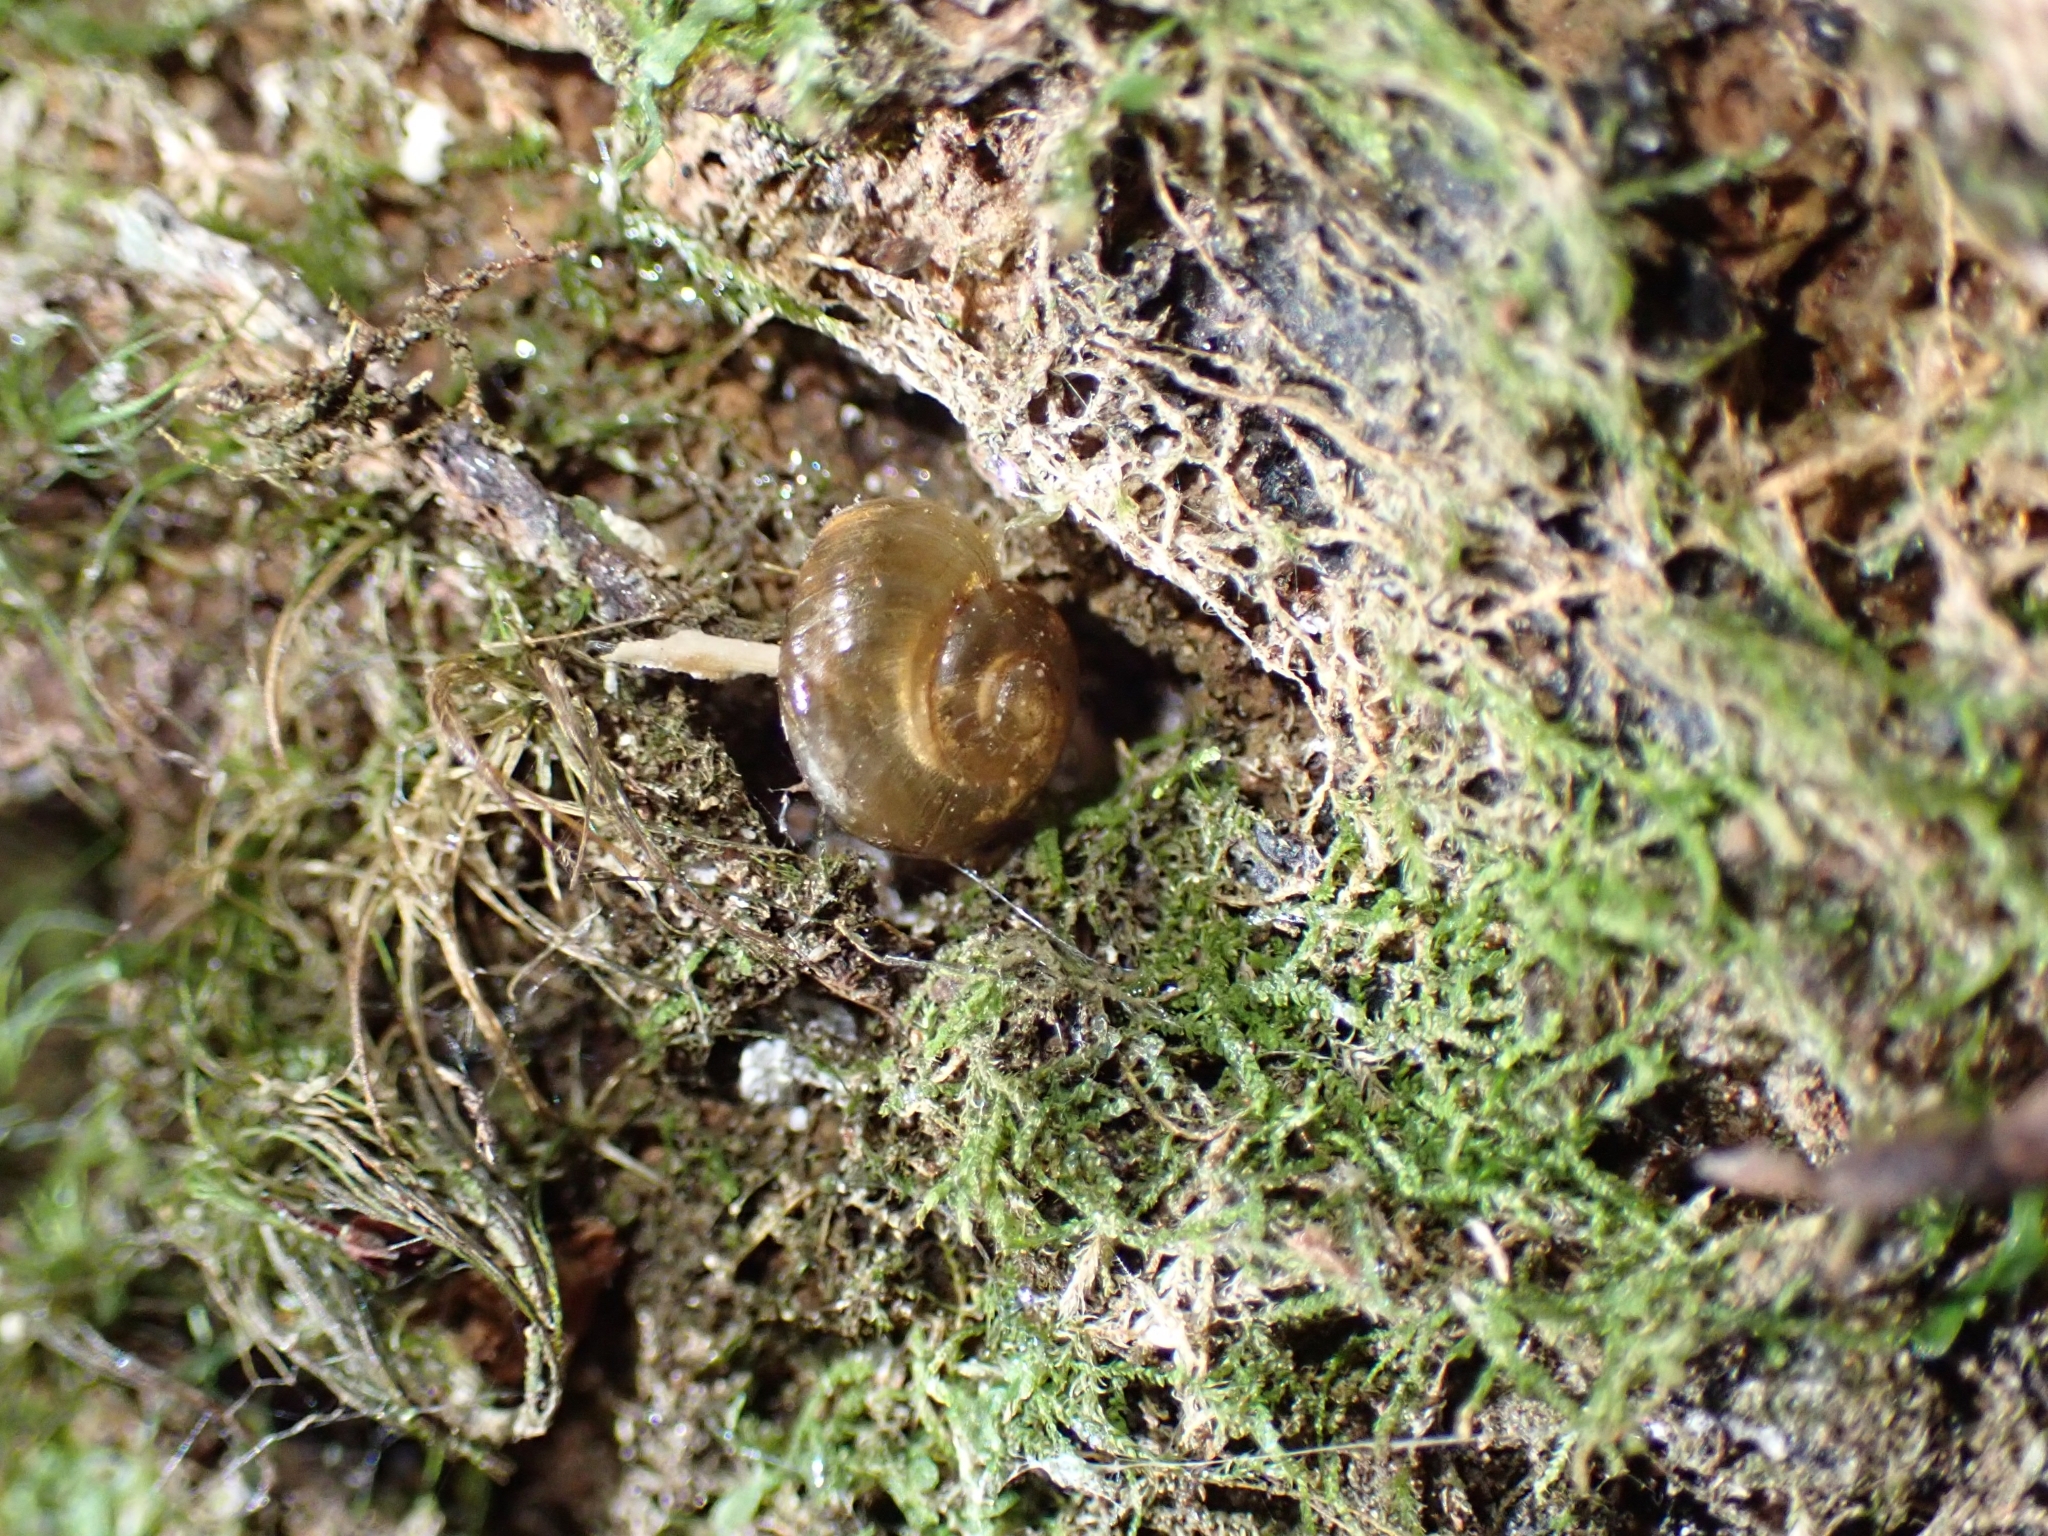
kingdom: Animalia
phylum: Mollusca
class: Gastropoda
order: Stylommatophora
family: Charopidae
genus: Flammulina
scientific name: Flammulina perdita
